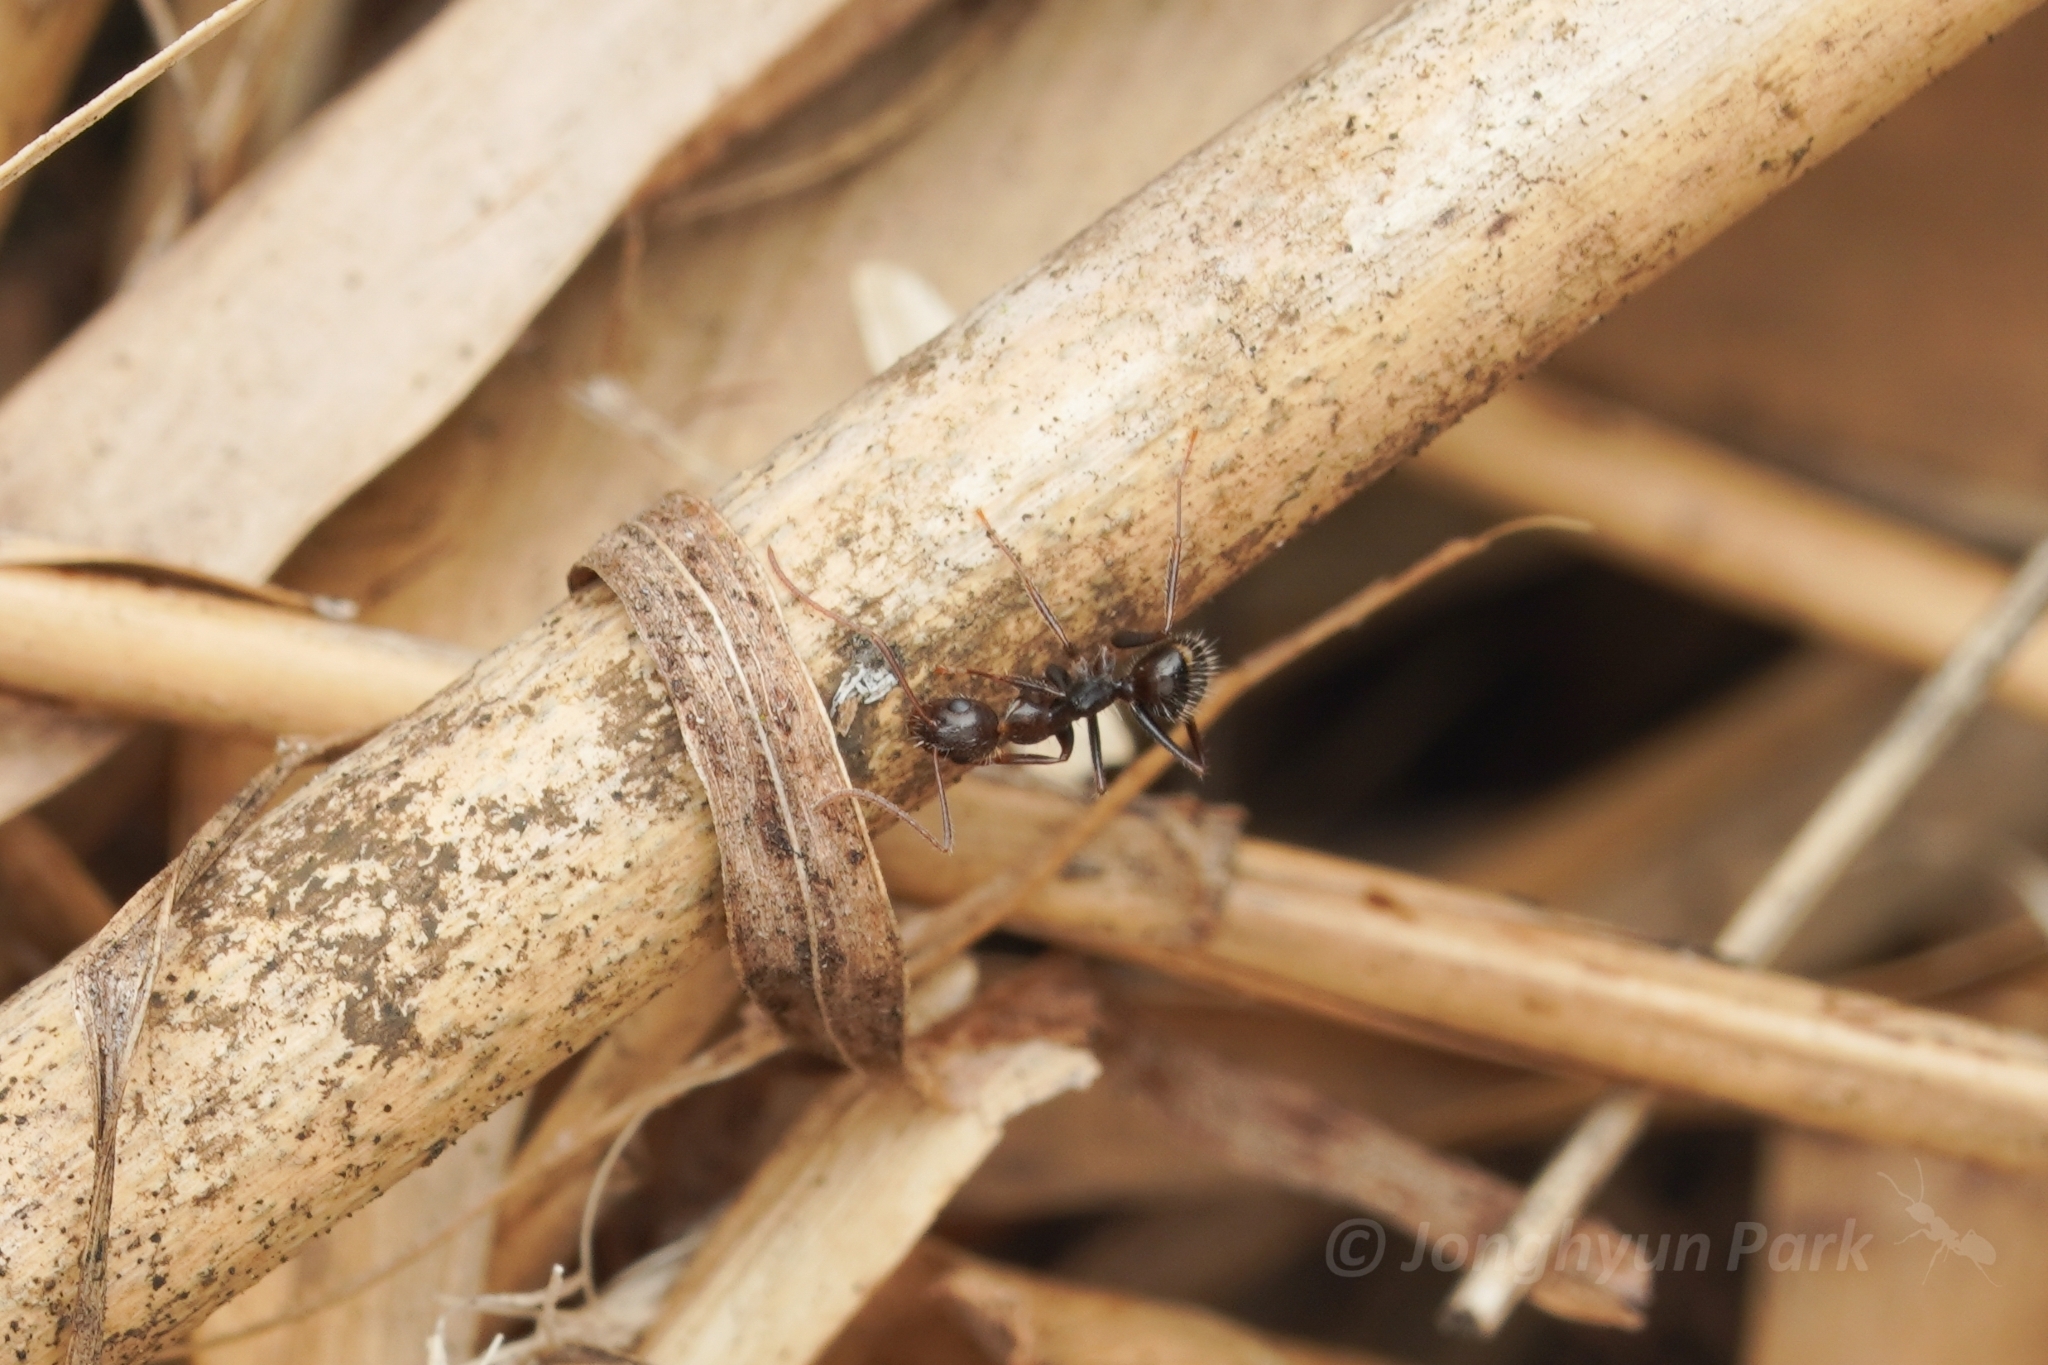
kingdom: Animalia
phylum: Arthropoda
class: Insecta
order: Hymenoptera
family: Formicidae
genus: Camponotus
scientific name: Camponotus sexguttatus
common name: Neotropical carpenter ant
